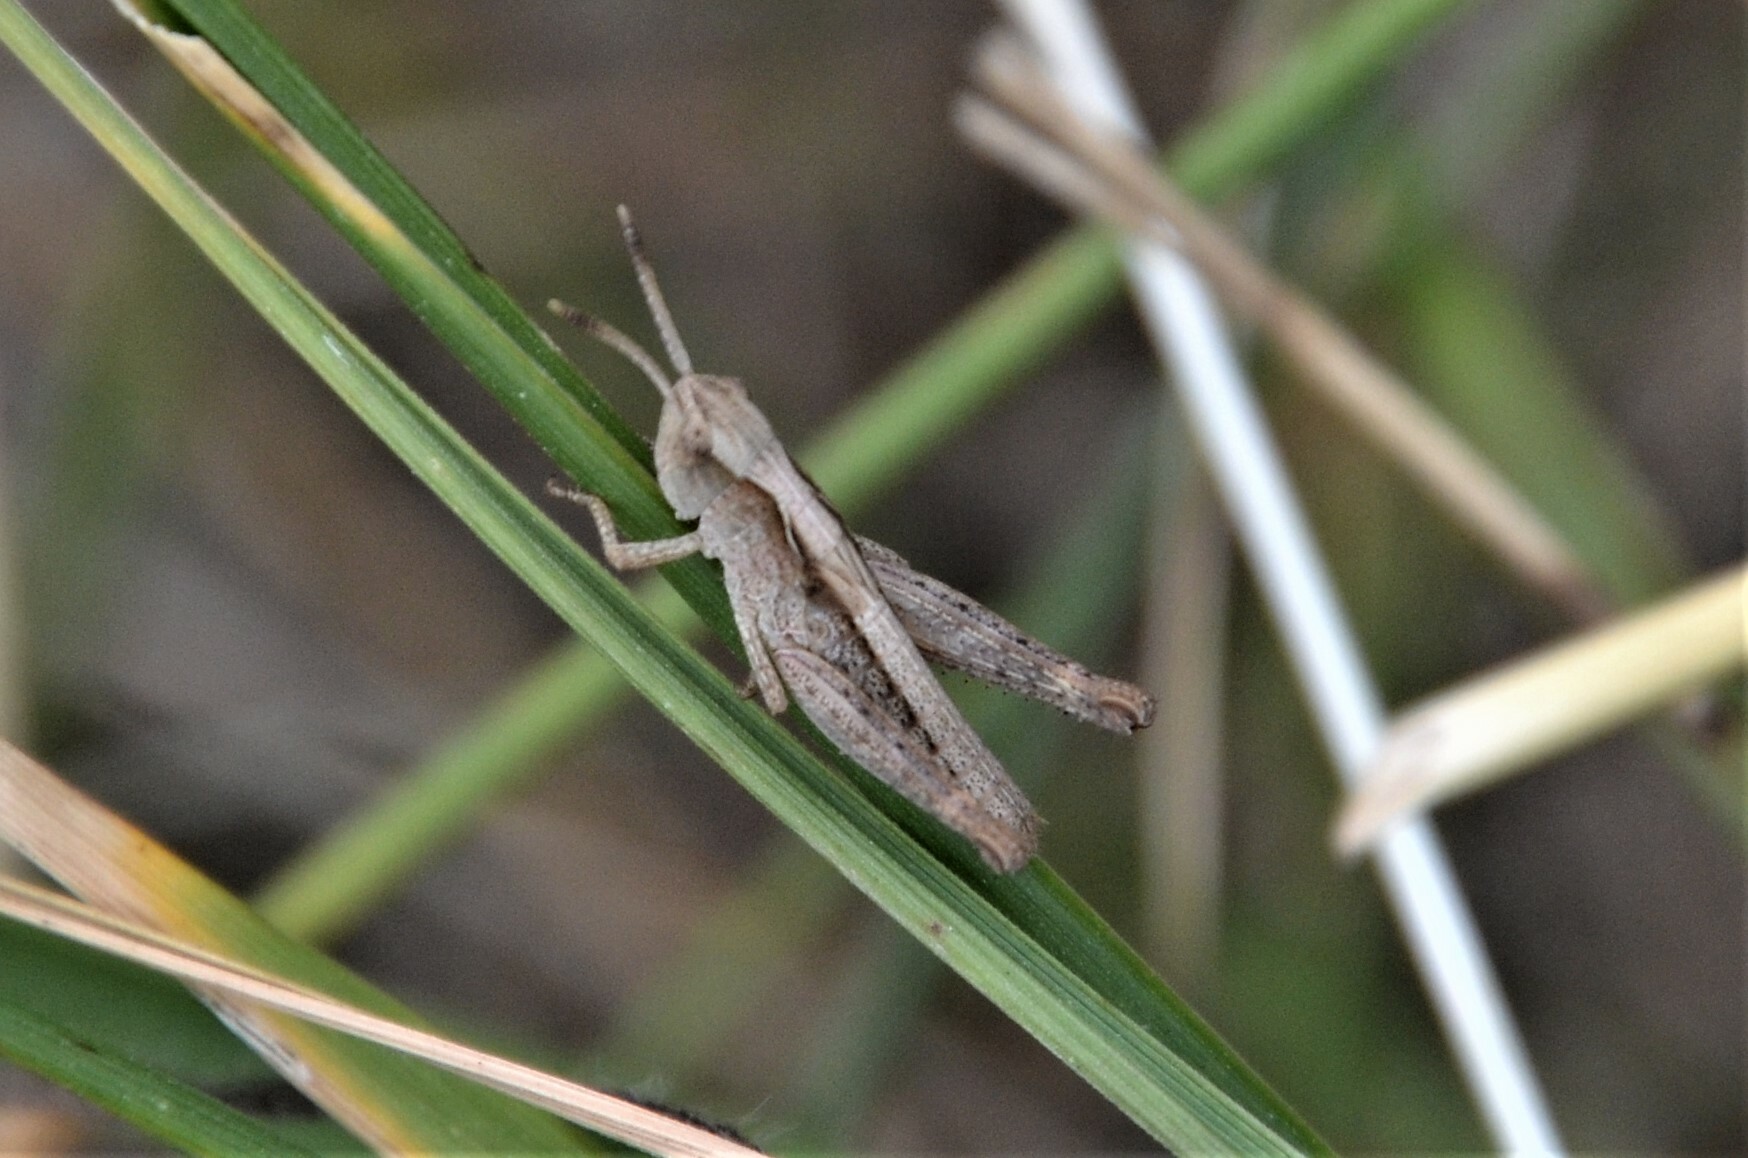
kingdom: Animalia
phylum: Arthropoda
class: Insecta
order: Orthoptera
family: Acrididae
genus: Gomphocerippus
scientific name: Gomphocerippus rufus
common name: Rufous grasshopper
